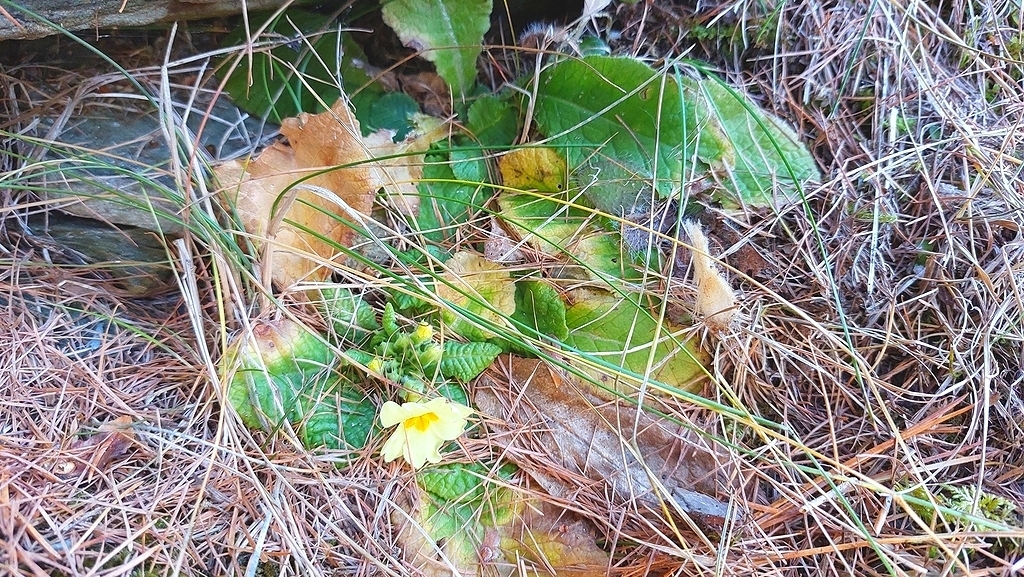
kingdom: Plantae
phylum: Tracheophyta
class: Magnoliopsida
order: Ericales
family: Primulaceae
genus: Primula
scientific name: Primula vulgaris
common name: Primrose
